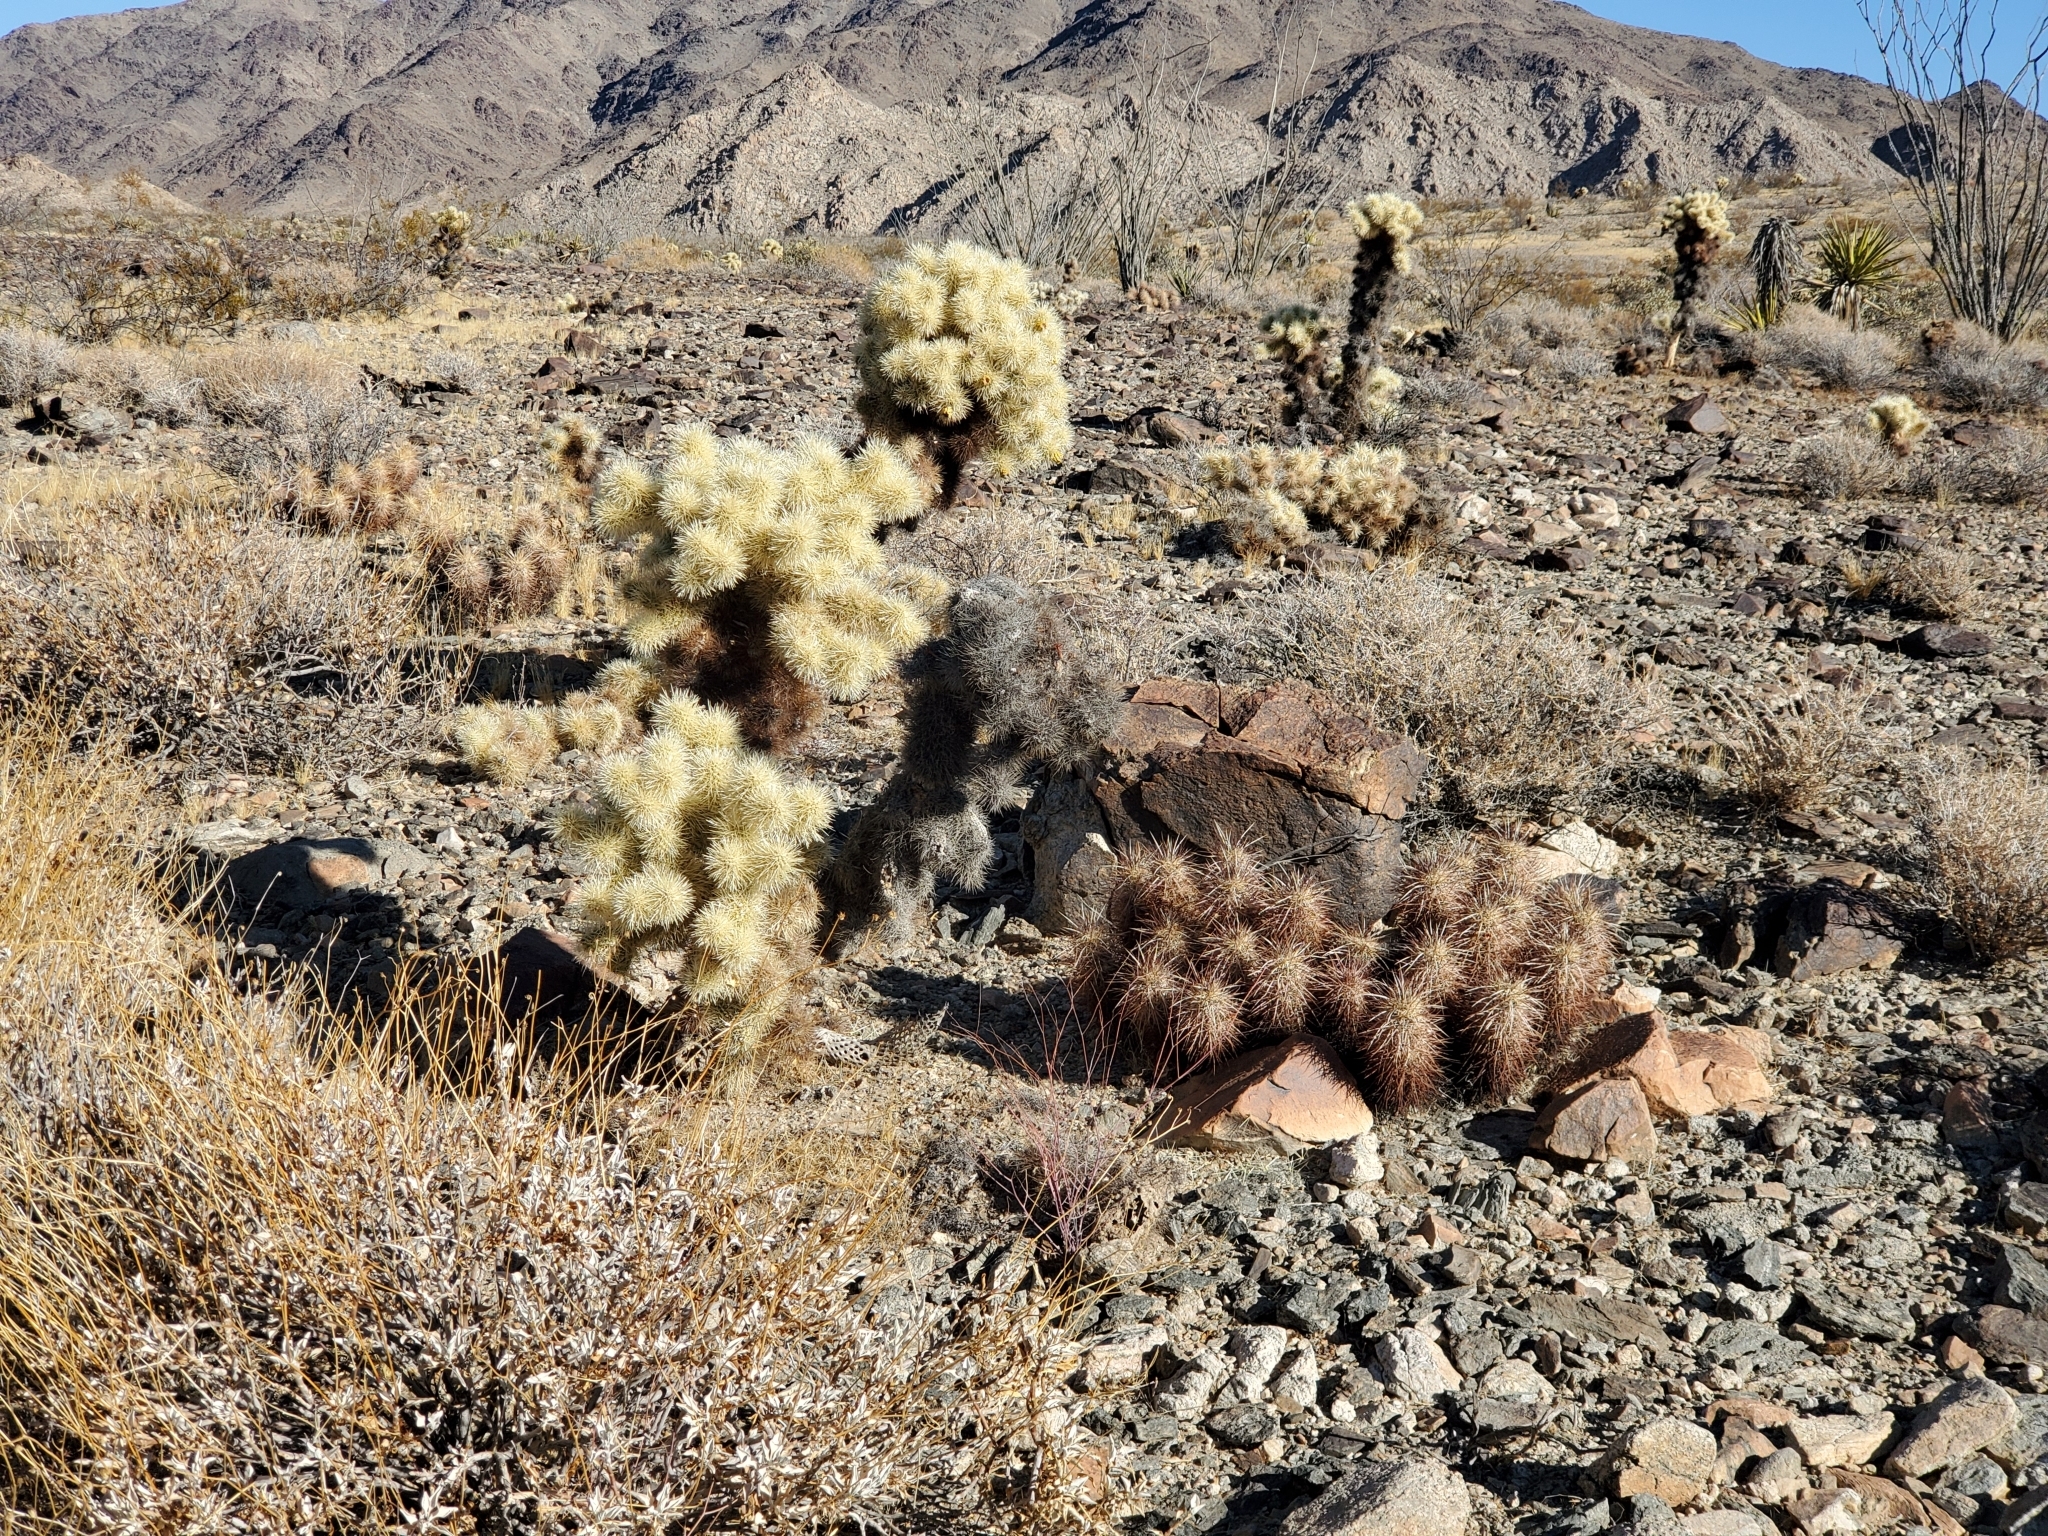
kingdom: Plantae
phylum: Tracheophyta
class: Magnoliopsida
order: Caryophyllales
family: Cactaceae
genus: Echinocereus
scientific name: Echinocereus engelmannii
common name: Engelmann's hedgehog cactus
